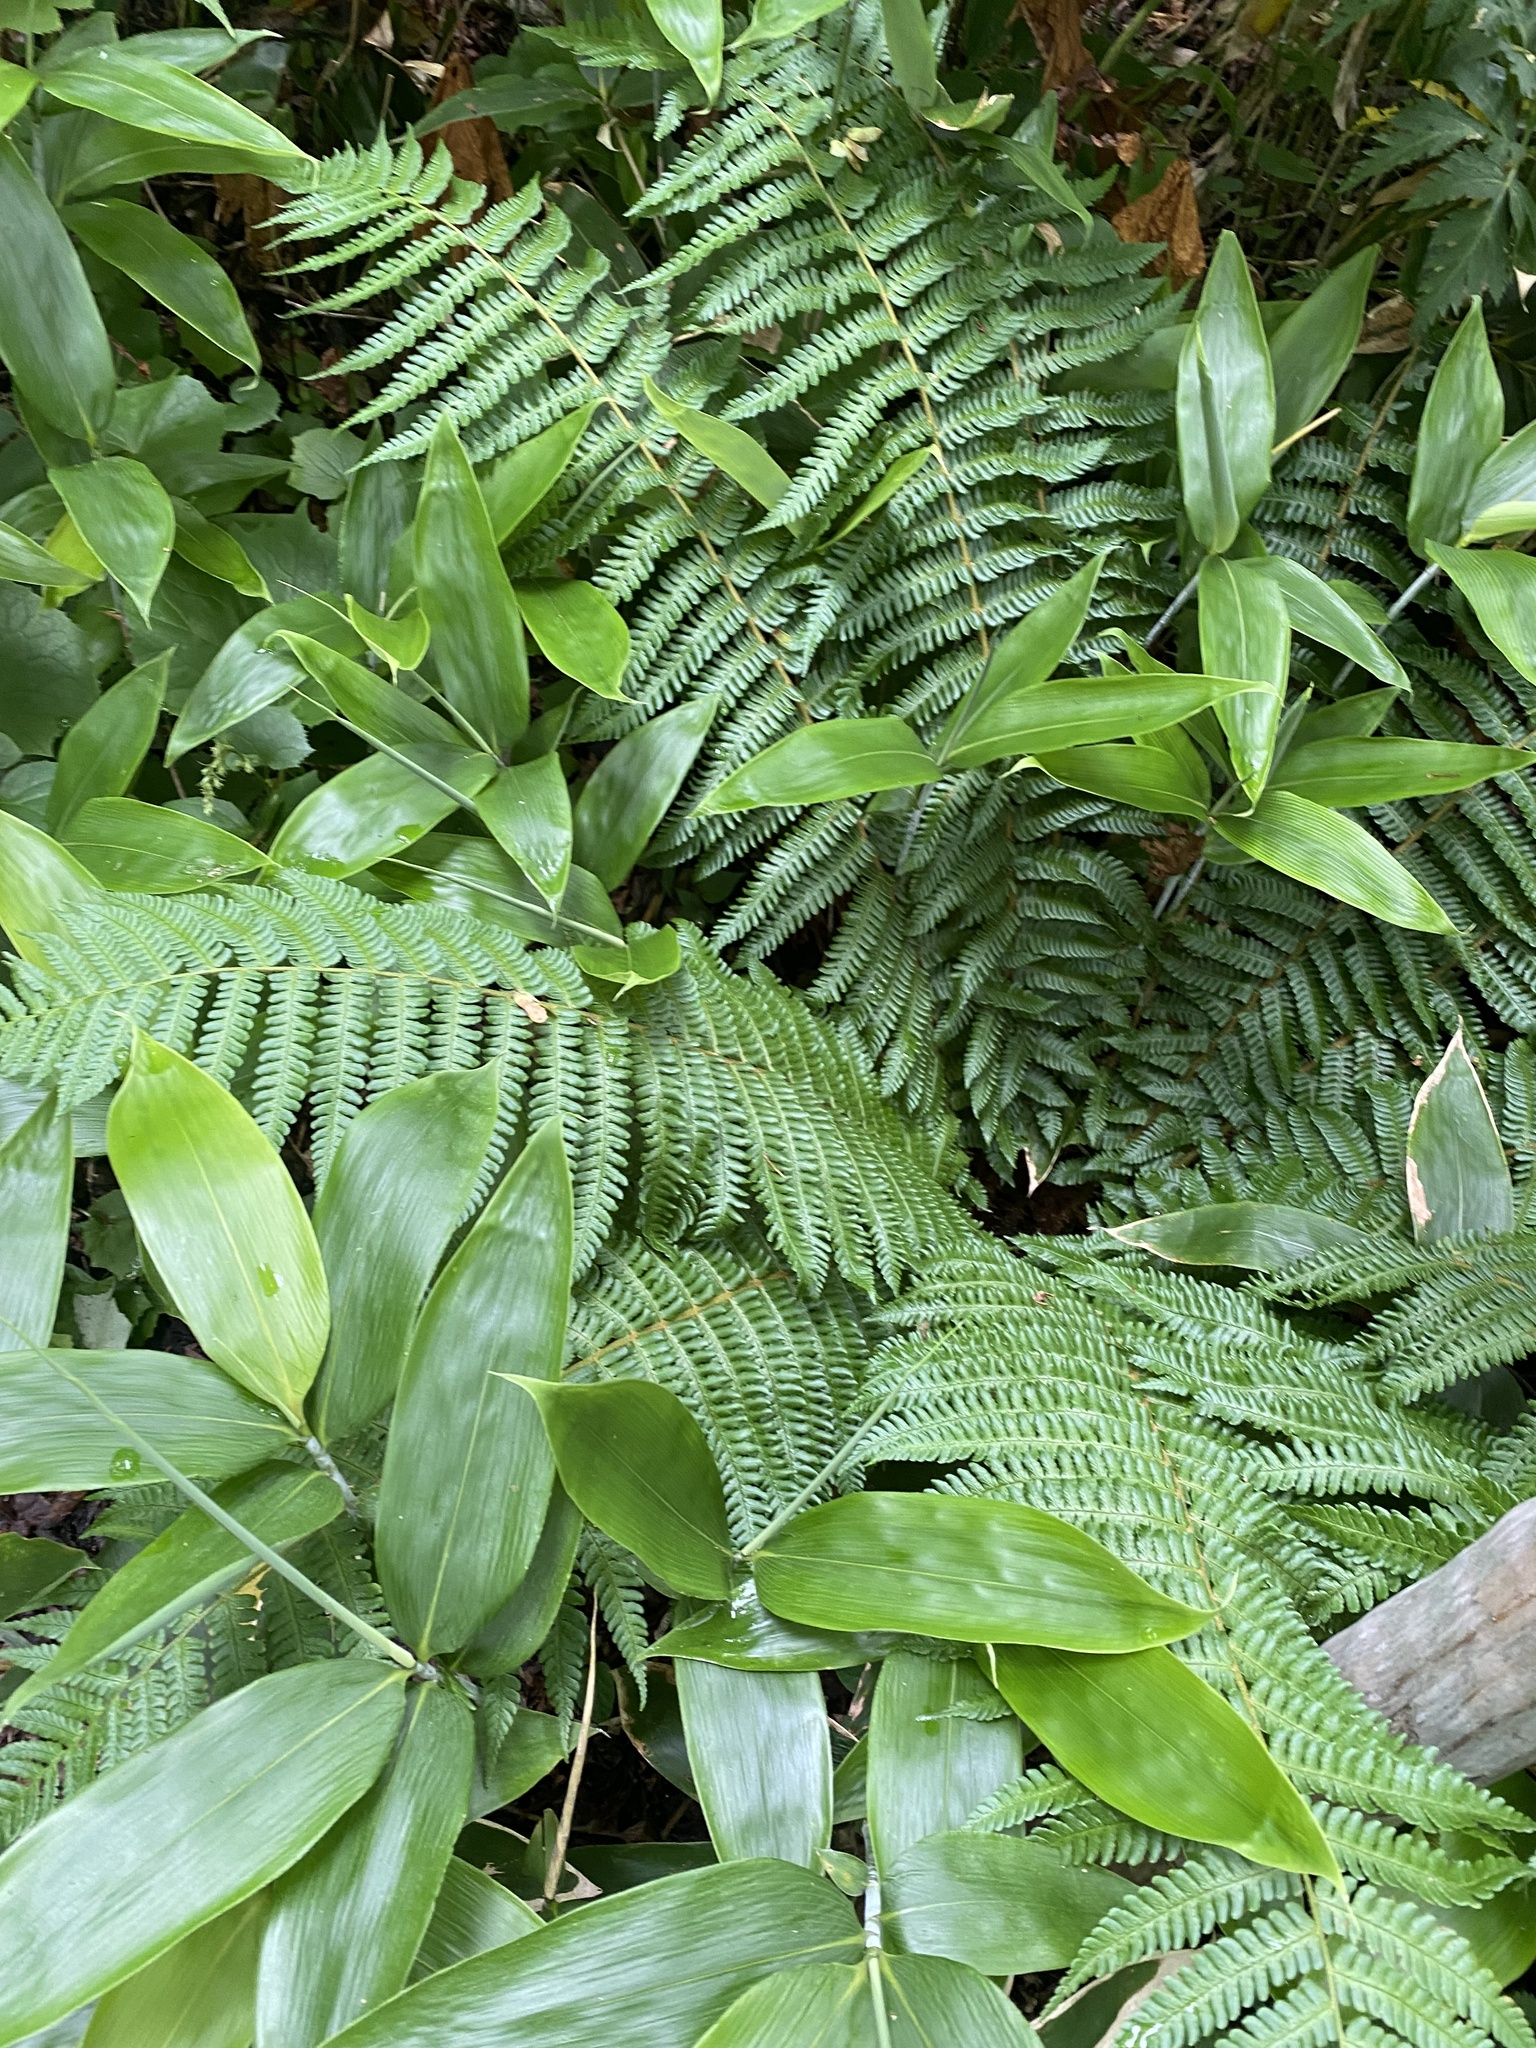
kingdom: Plantae
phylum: Tracheophyta
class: Polypodiopsida
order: Polypodiales
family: Dryopteridaceae
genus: Dryopteris
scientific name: Dryopteris crassirhizoma
